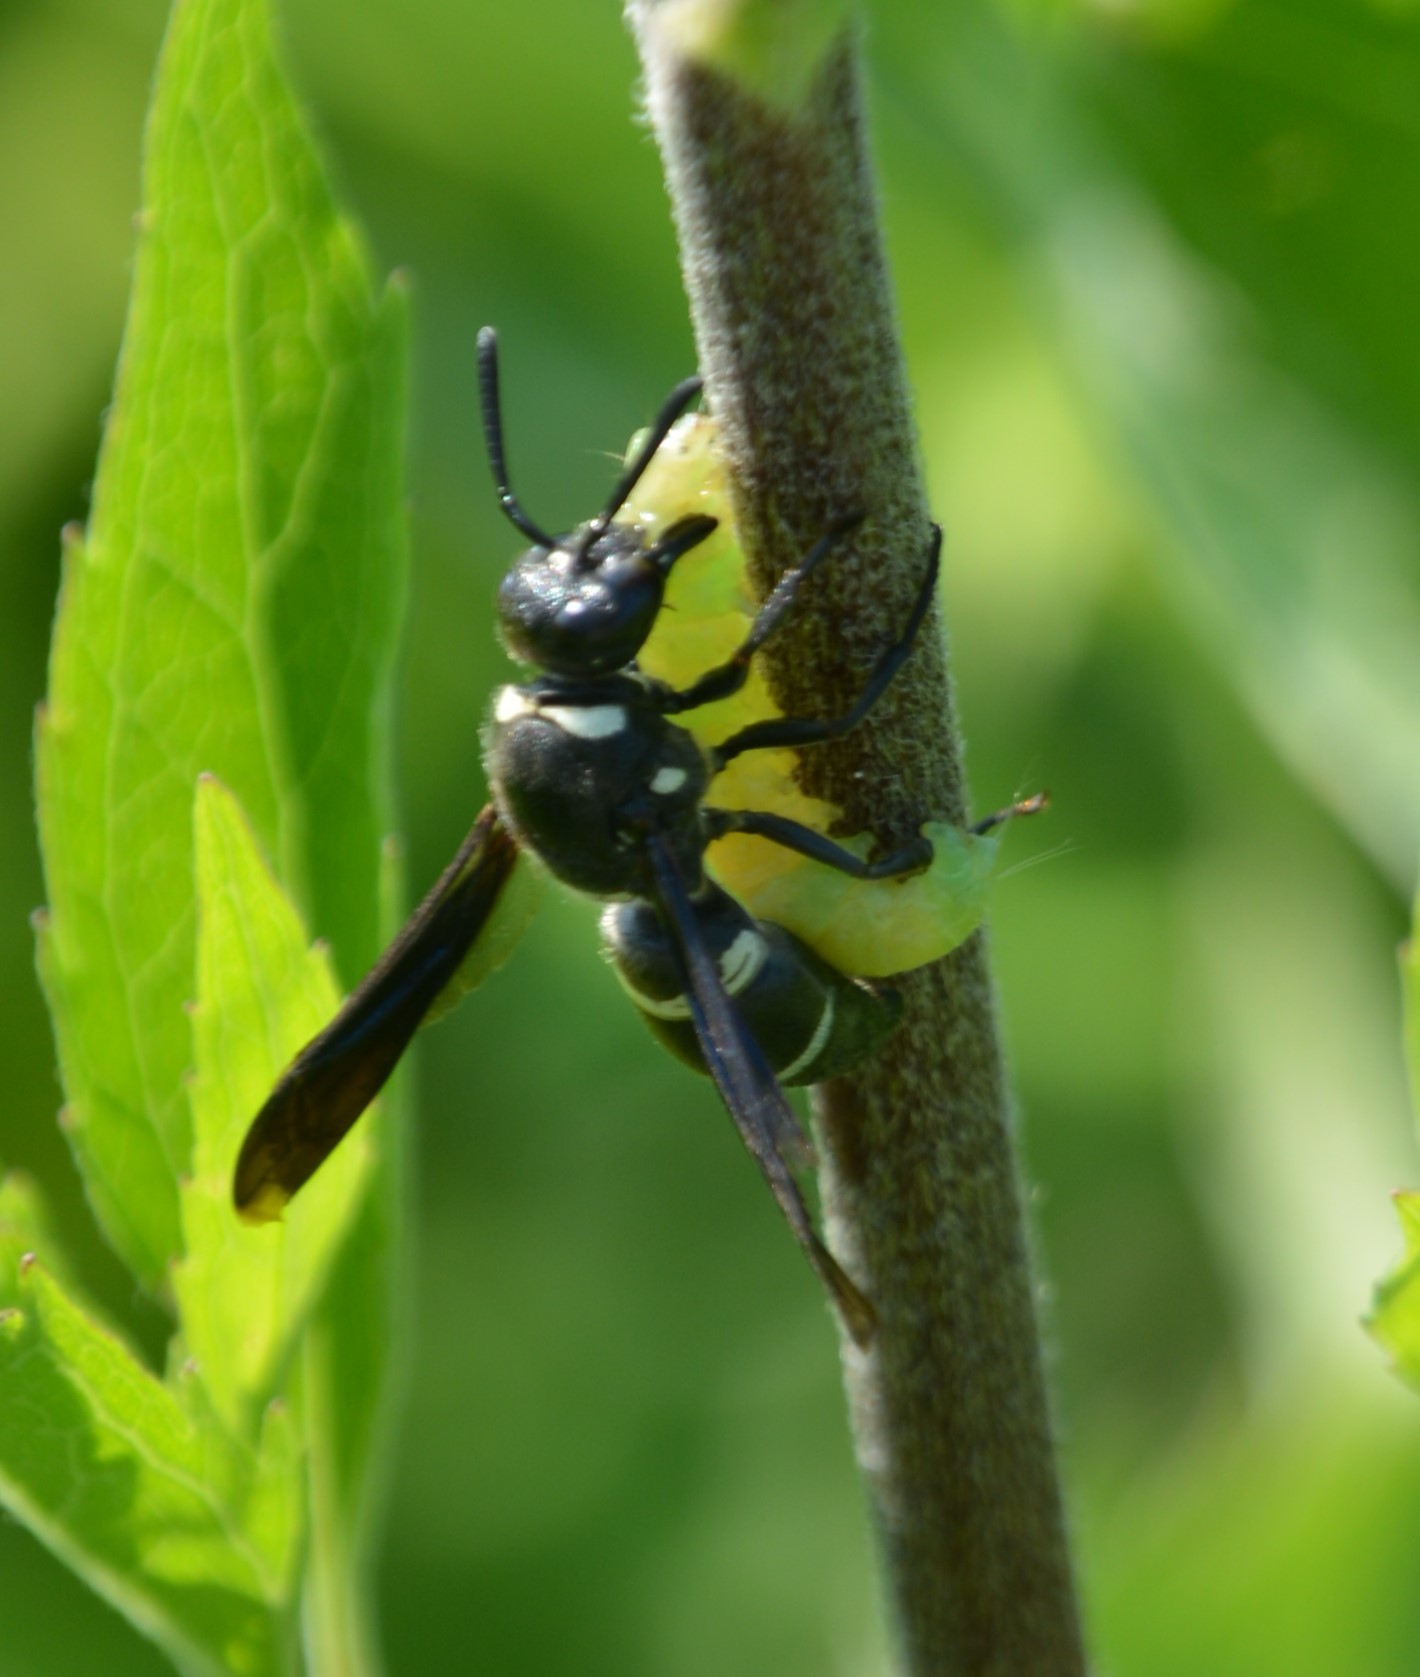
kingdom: Animalia
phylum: Arthropoda
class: Insecta
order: Hymenoptera
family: Eumenidae
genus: Euodynerus
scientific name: Euodynerus megaera
